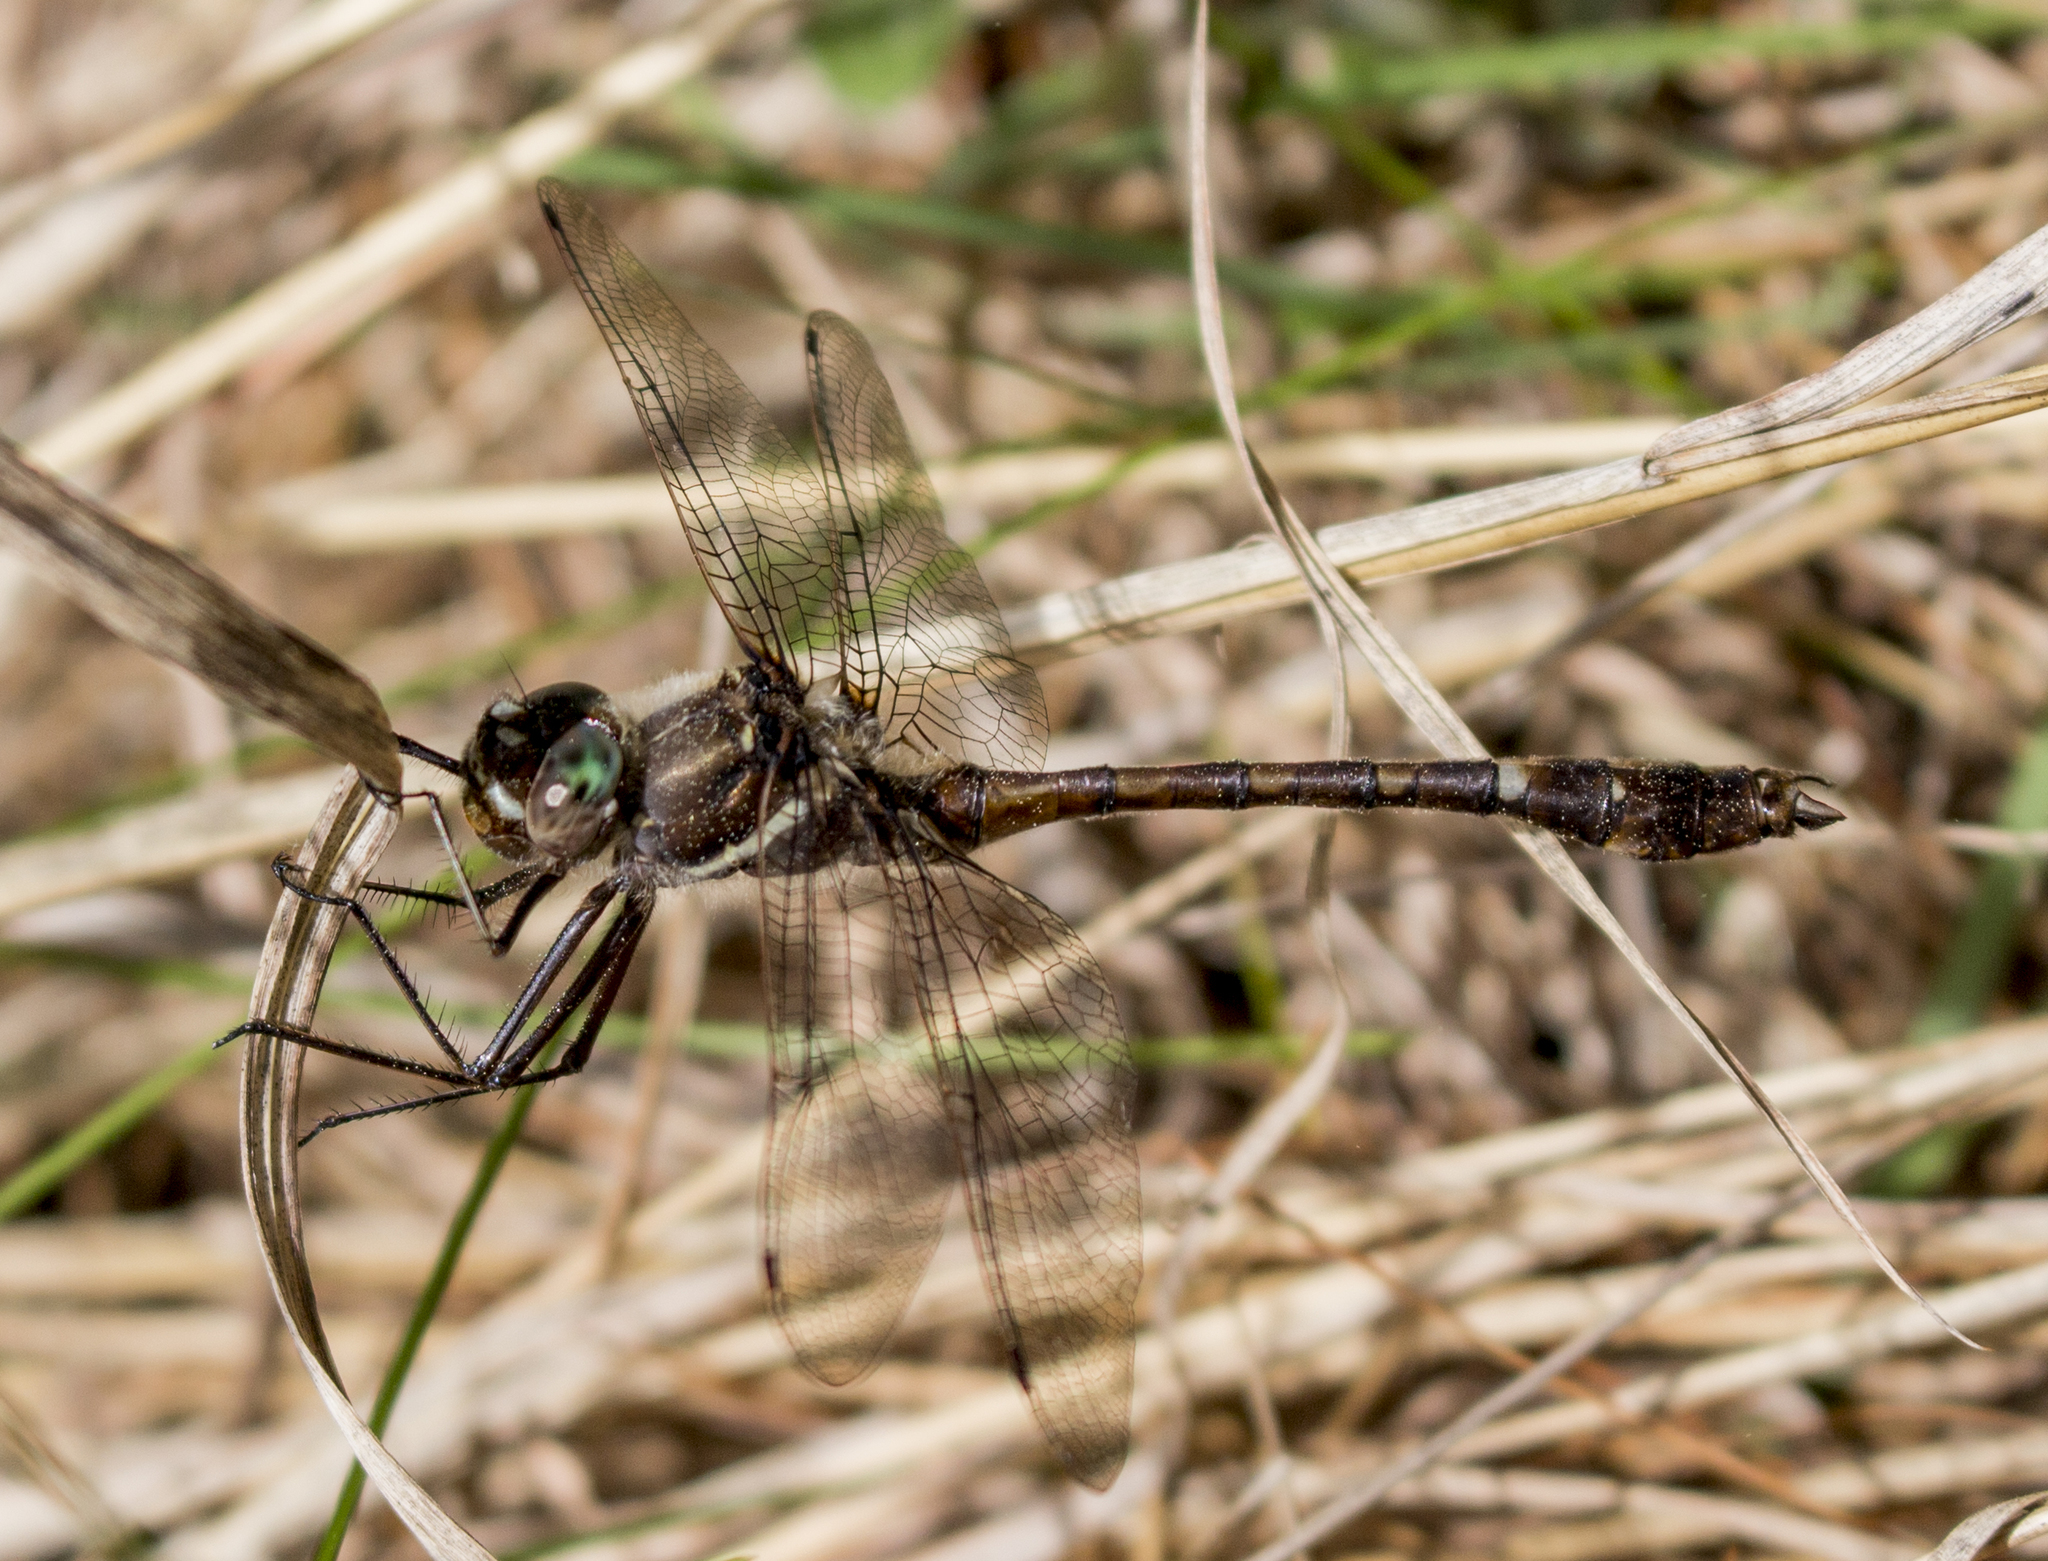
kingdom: Animalia
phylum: Arthropoda
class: Insecta
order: Odonata
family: Macromiidae
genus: Didymops
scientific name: Didymops transversa
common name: Stream cruiser
